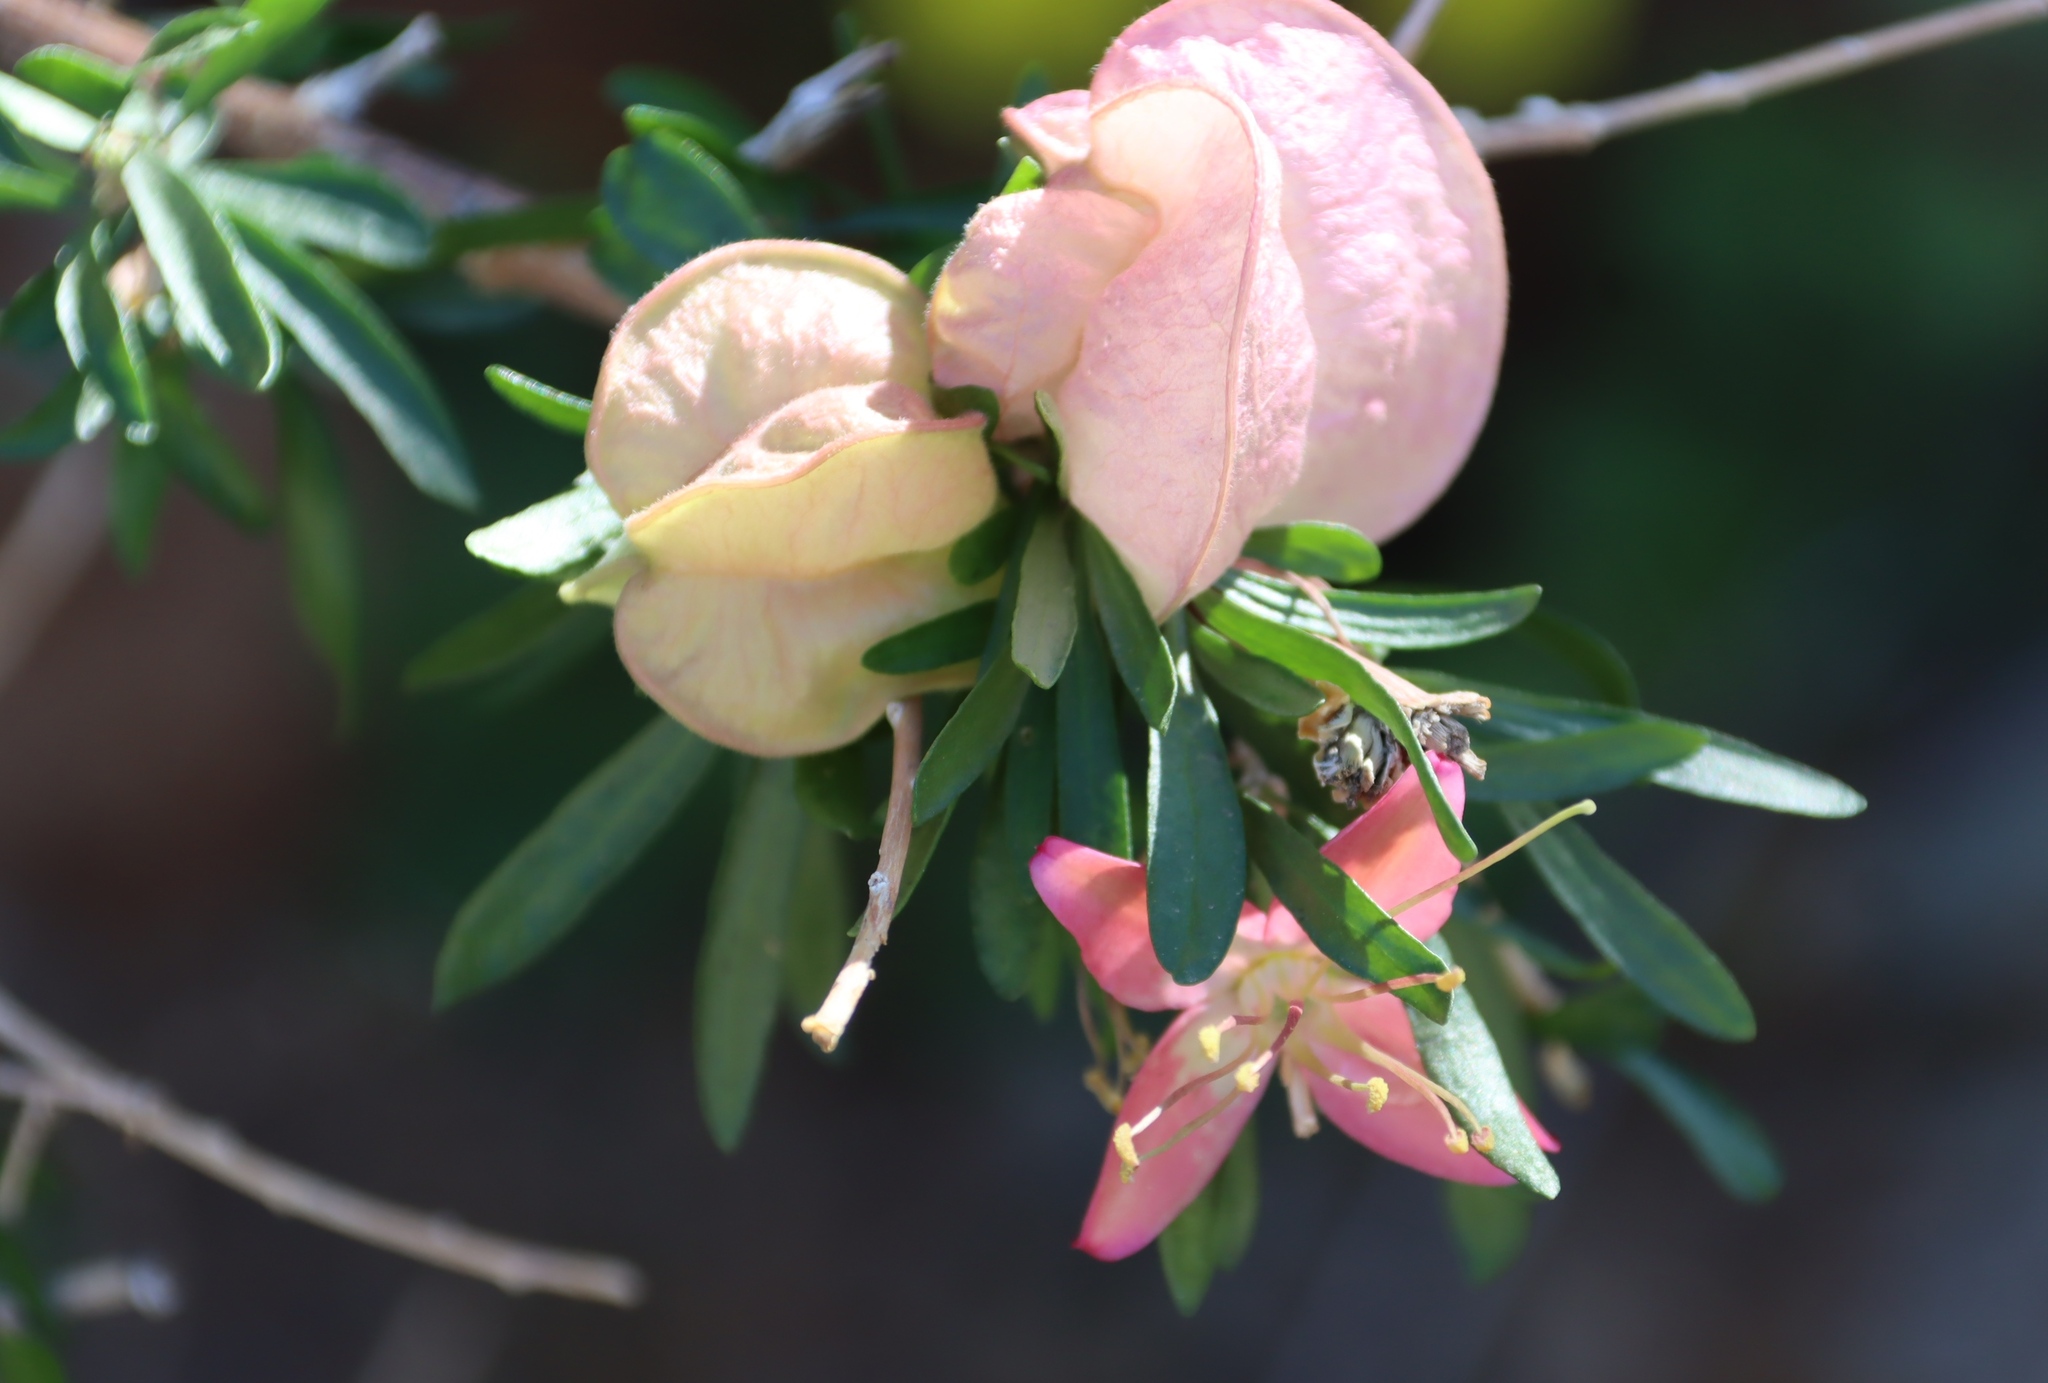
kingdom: Plantae
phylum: Tracheophyta
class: Magnoliopsida
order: Sapindales
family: Meliaceae
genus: Nymania
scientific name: Nymania capensis
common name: Chinese lantern tree
